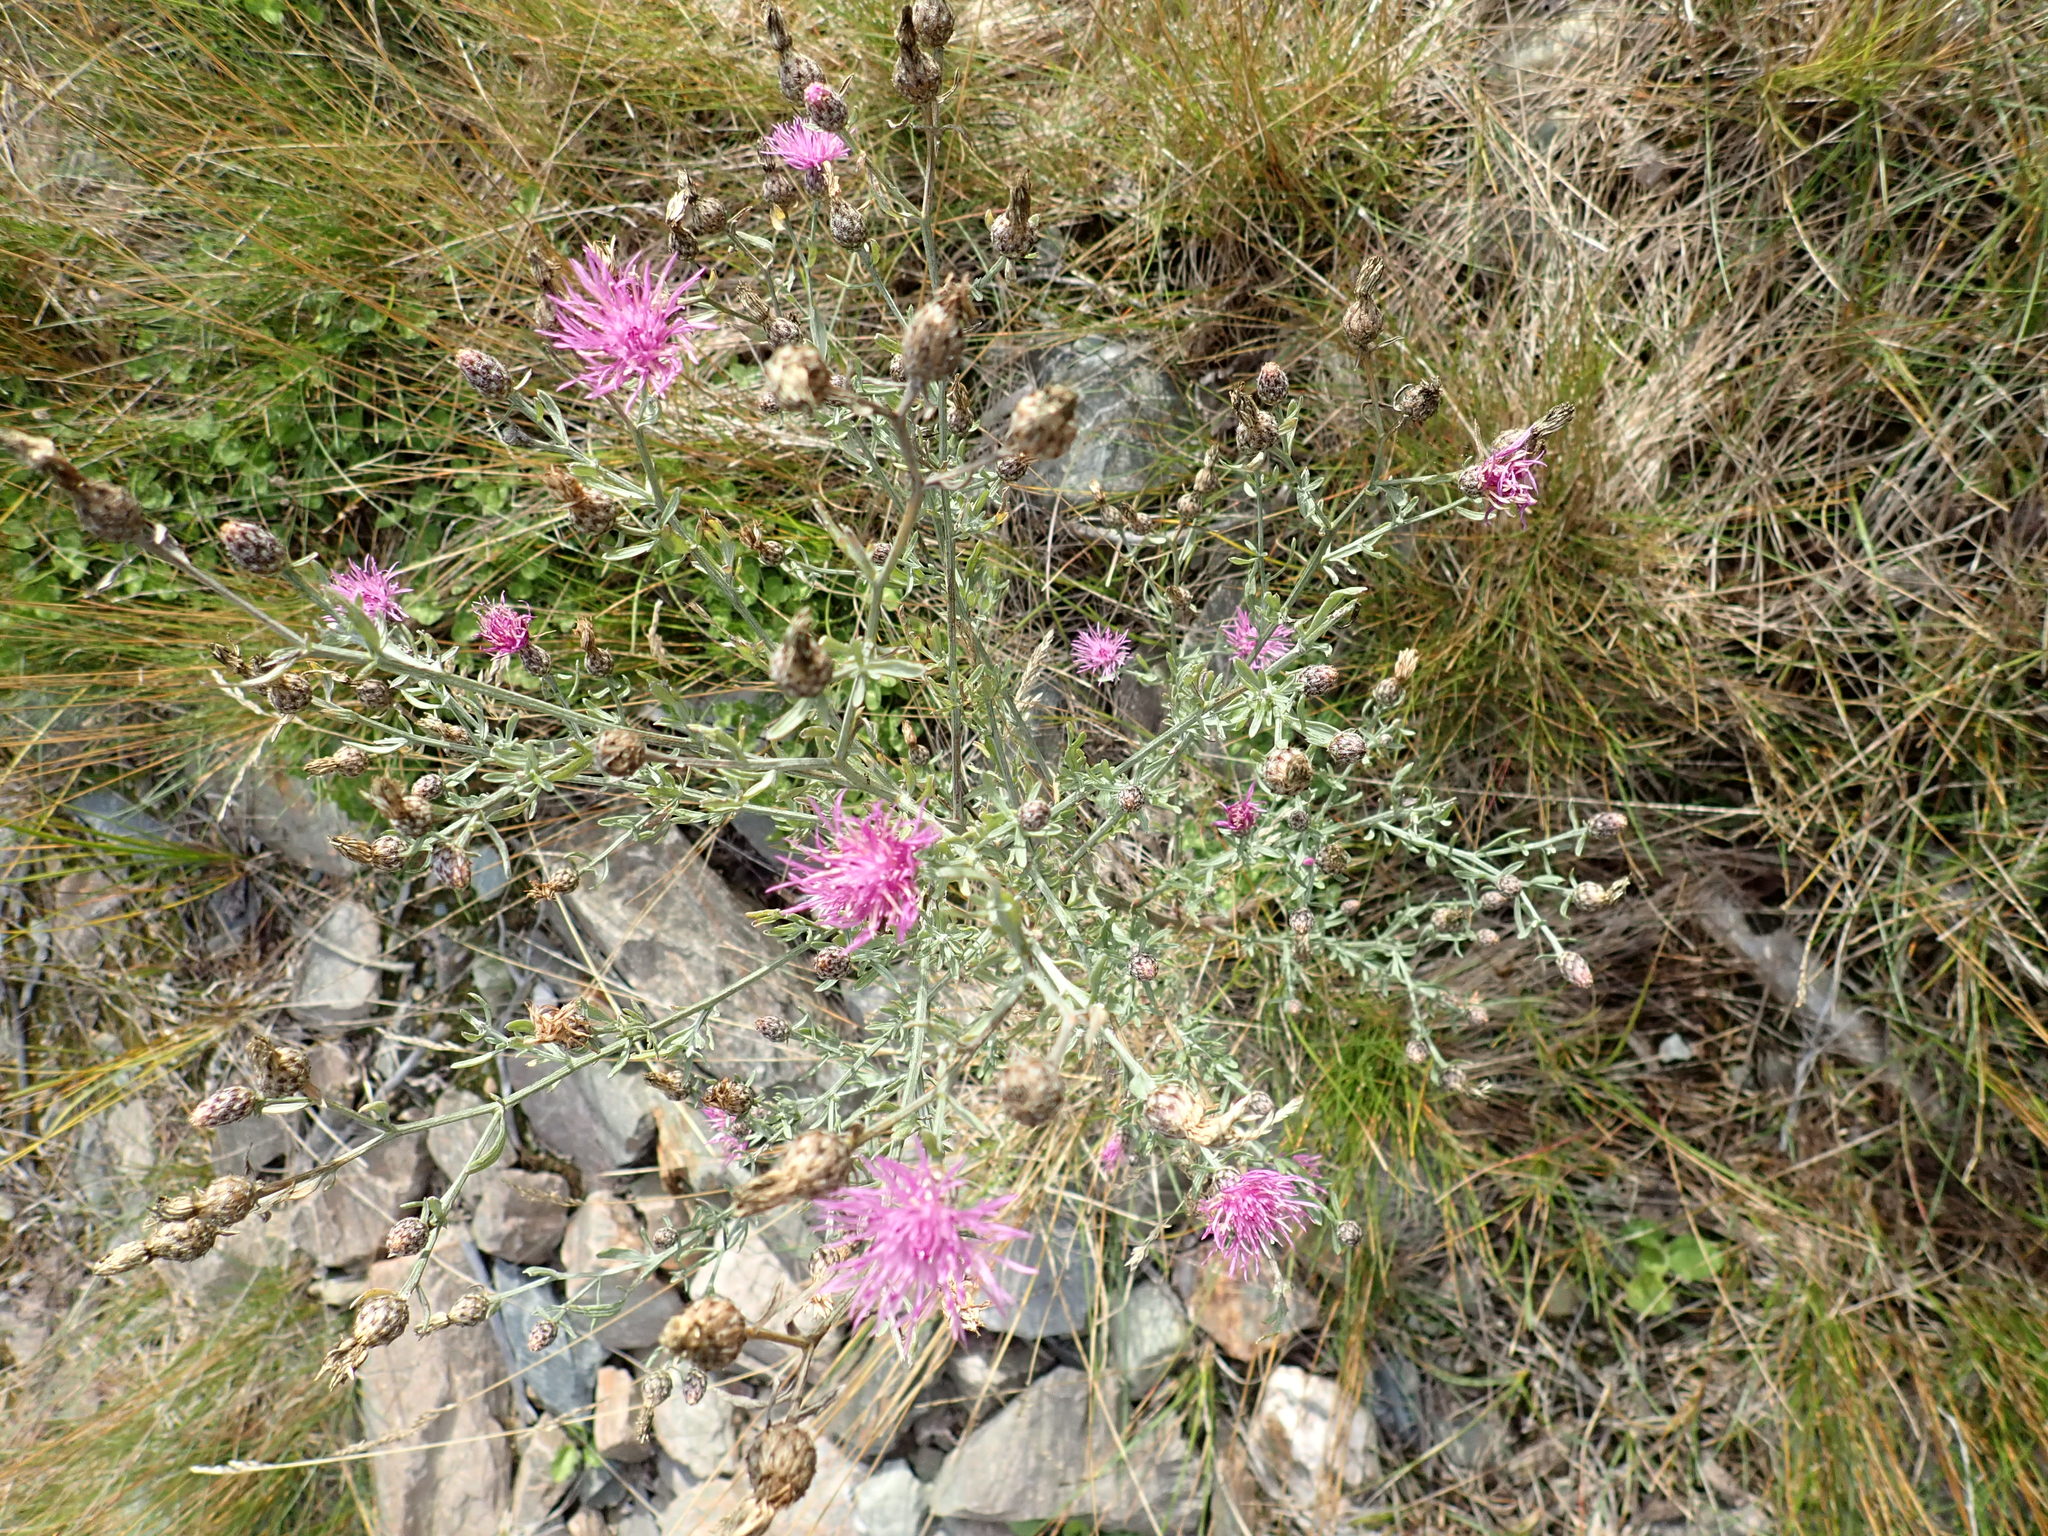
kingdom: Plantae
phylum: Tracheophyta
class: Magnoliopsida
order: Asterales
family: Asteraceae
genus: Centaurea
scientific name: Centaurea stoebe
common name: Spotted knapweed
